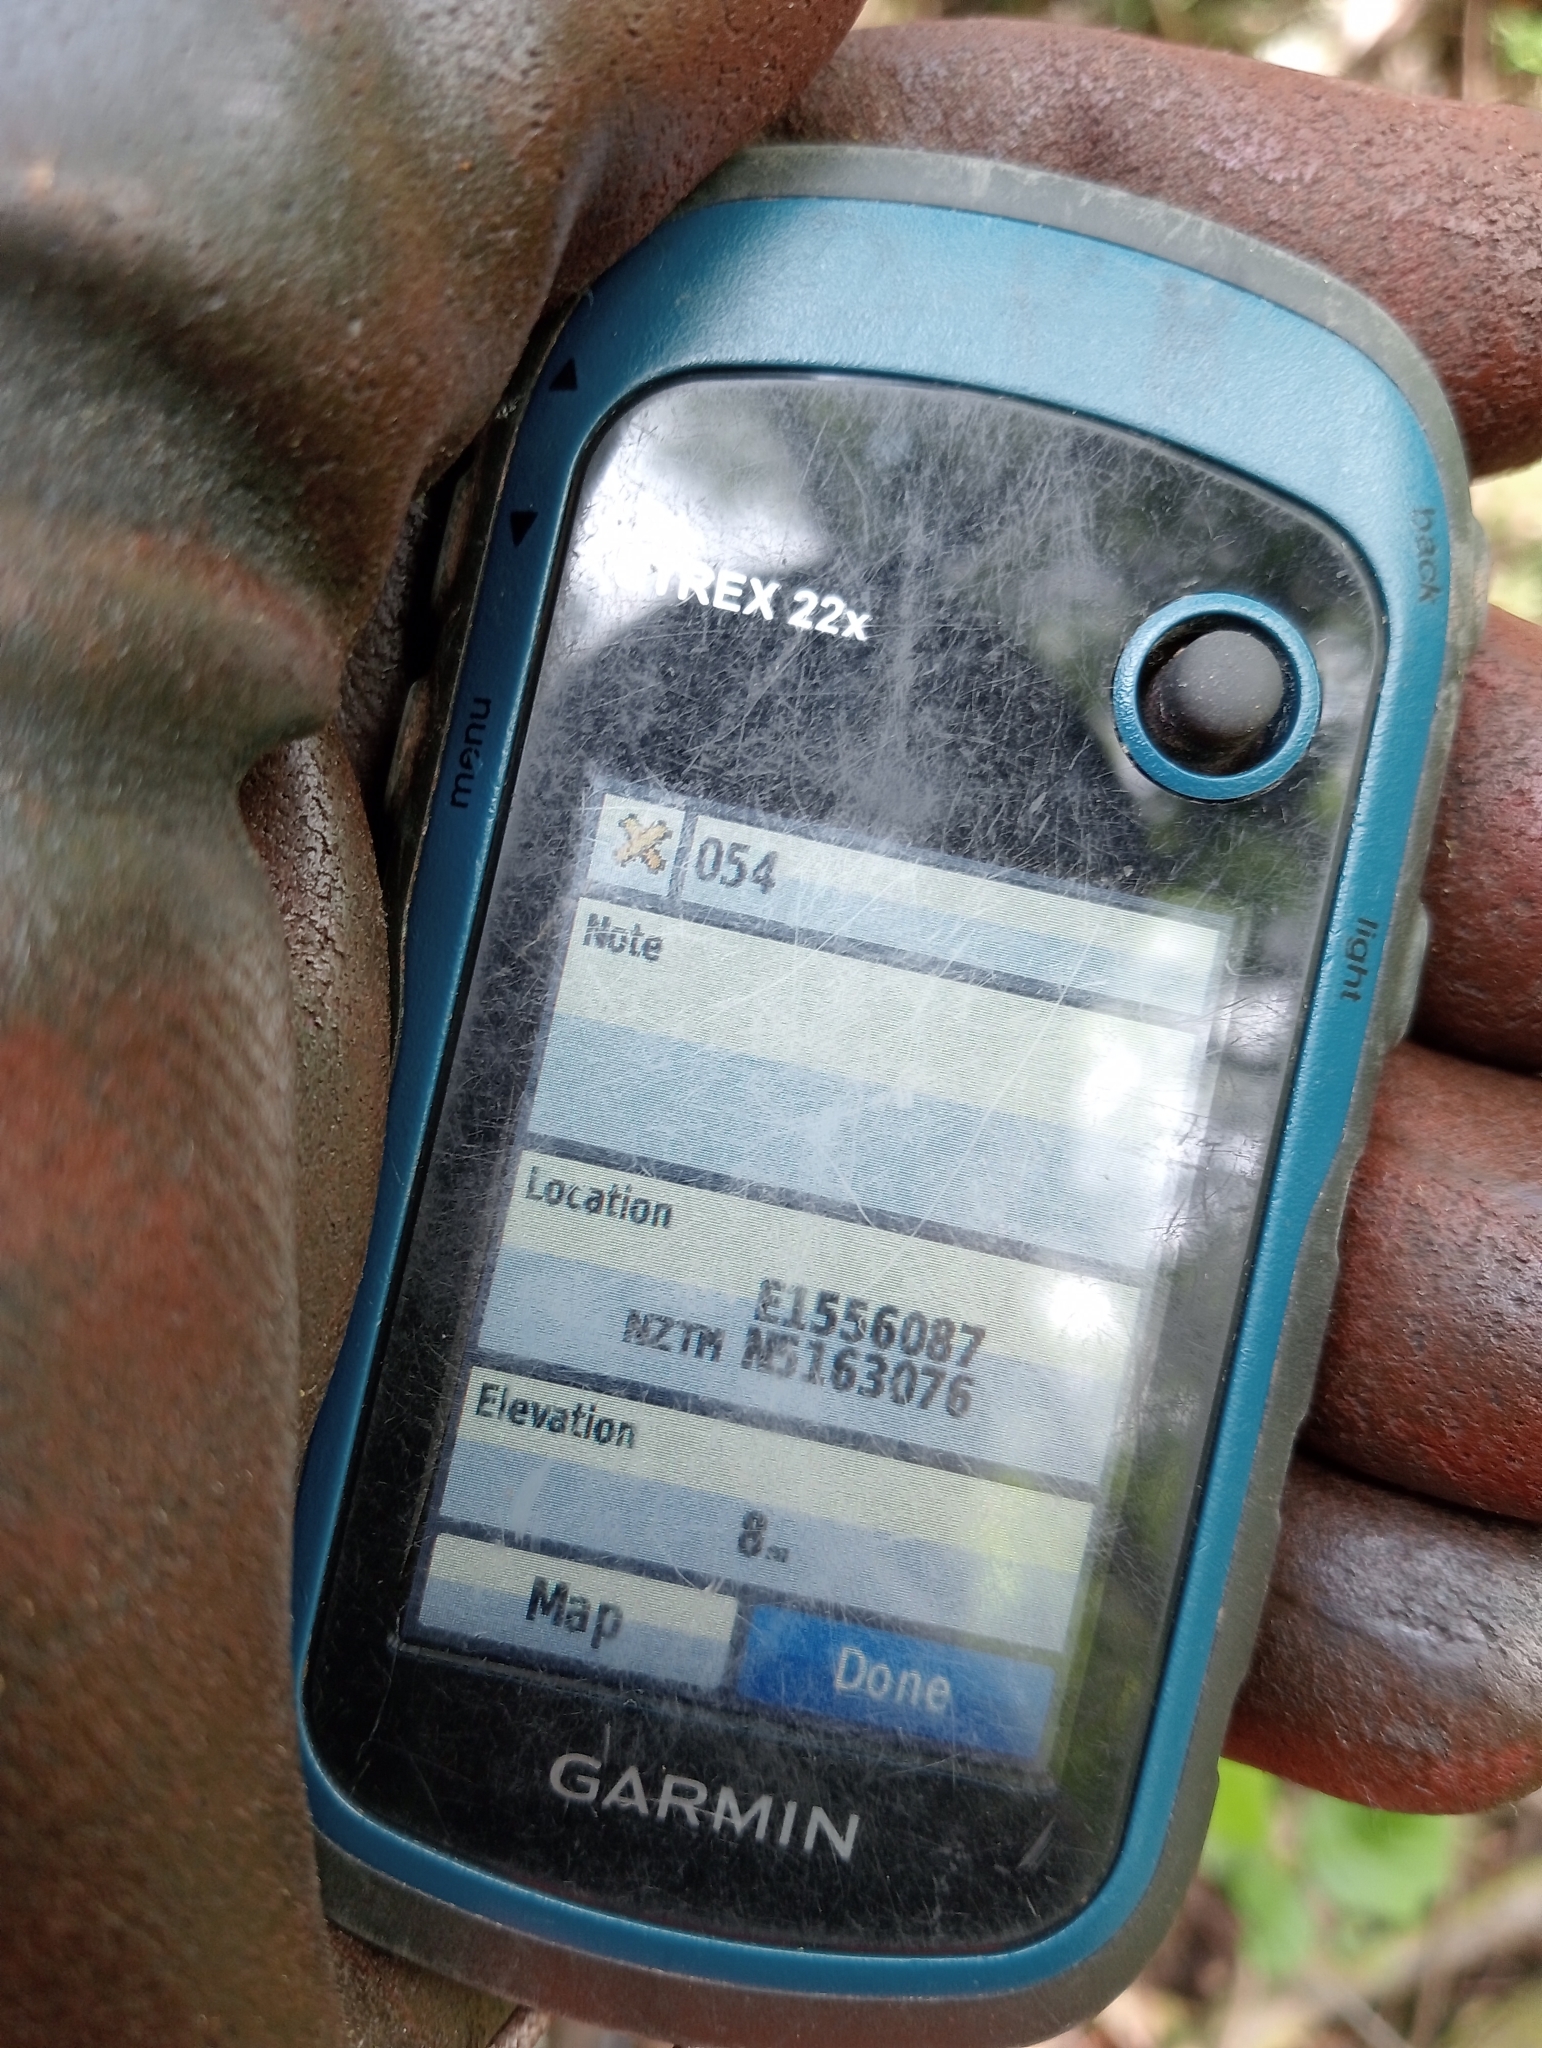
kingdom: Plantae
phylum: Tracheophyta
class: Magnoliopsida
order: Gentianales
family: Rubiaceae
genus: Coprosma
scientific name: Coprosma crassifolia
